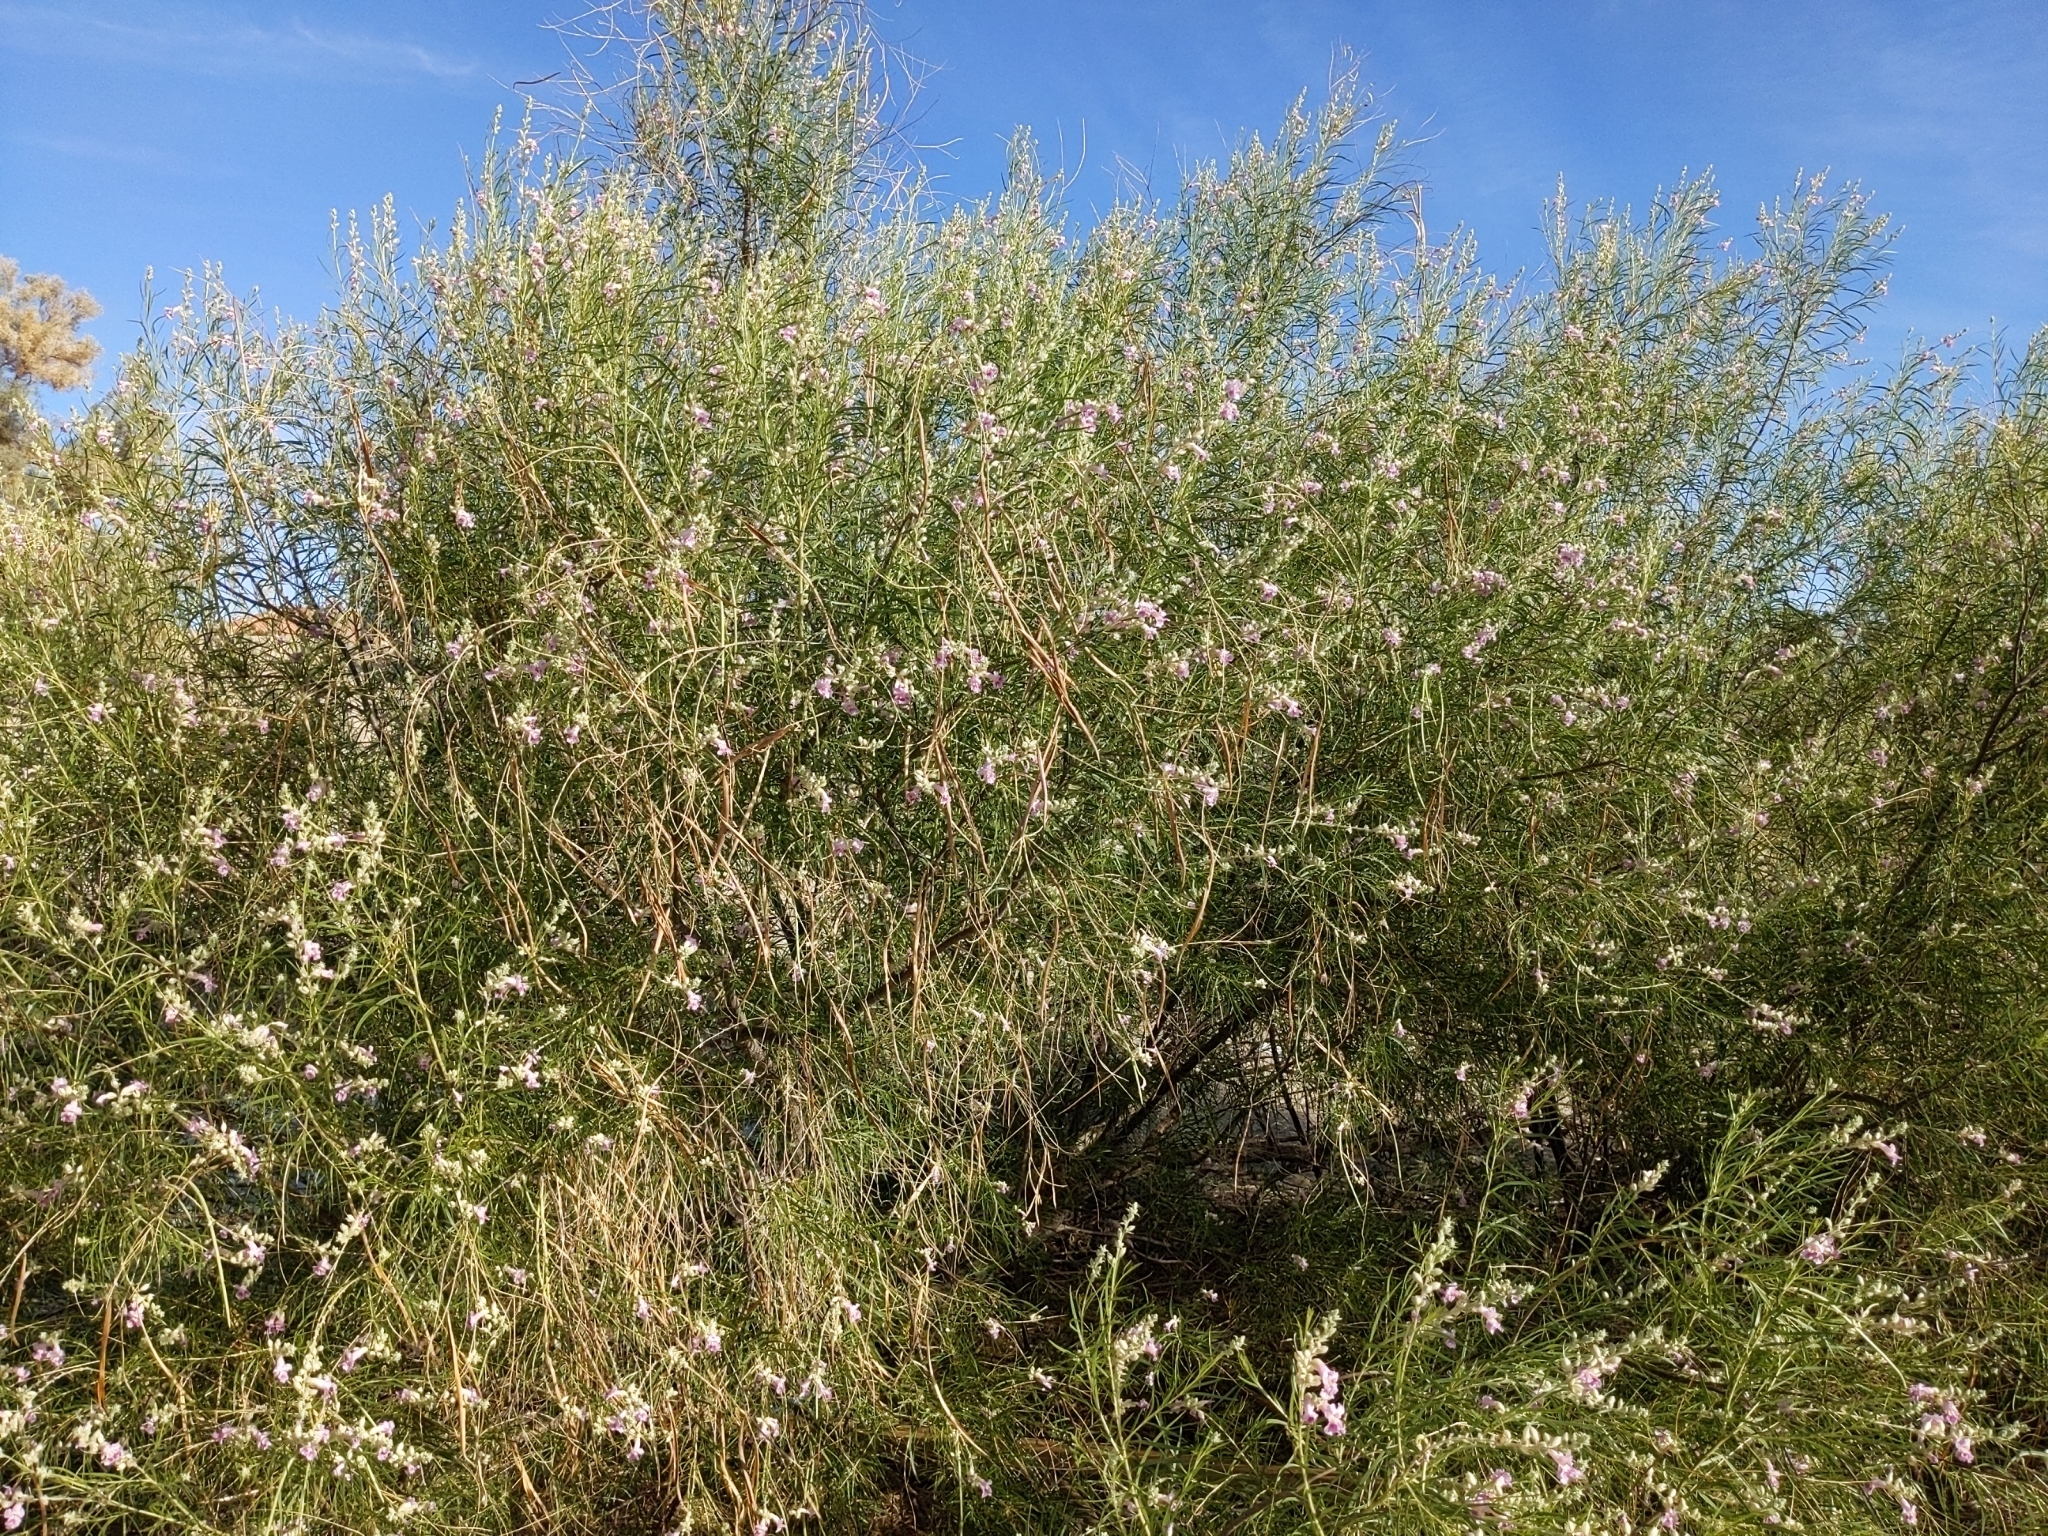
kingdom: Plantae
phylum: Tracheophyta
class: Magnoliopsida
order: Lamiales
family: Bignoniaceae
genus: Chilopsis
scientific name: Chilopsis linearis
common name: Desert-willow
